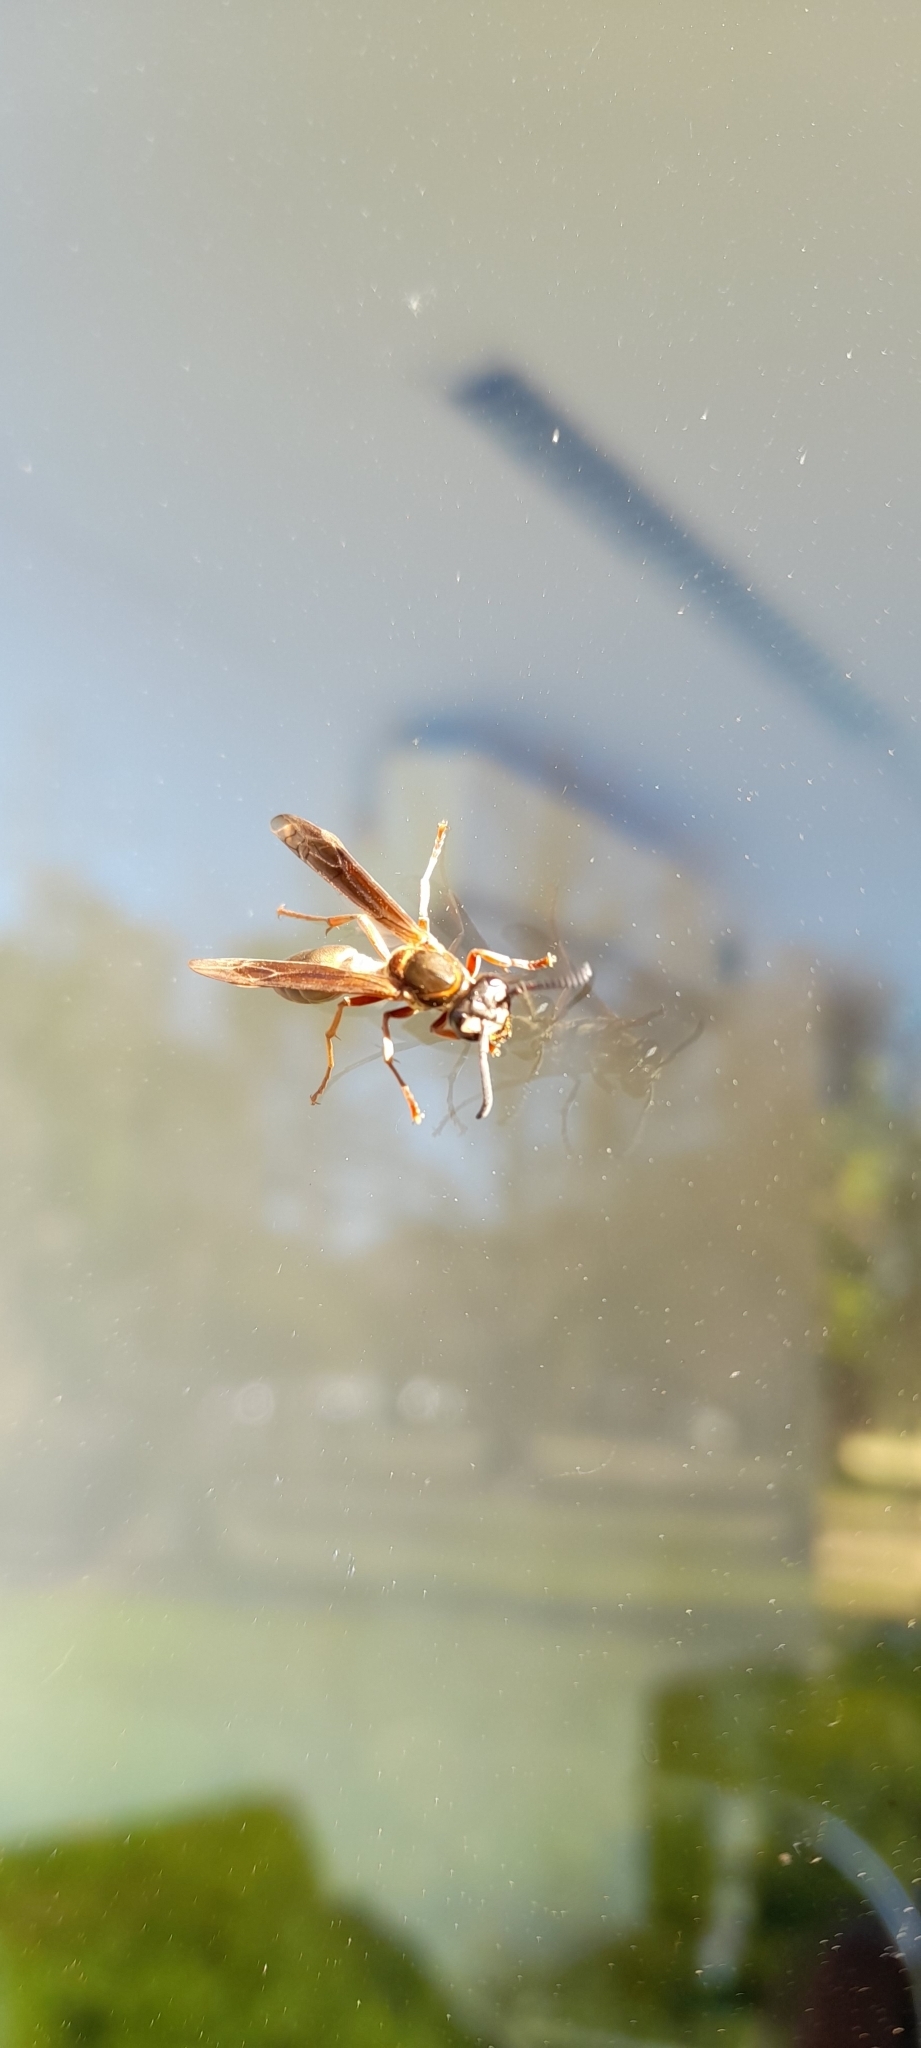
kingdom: Animalia
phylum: Arthropoda
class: Insecta
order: Hymenoptera
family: Eumenidae
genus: Polybia
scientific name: Polybia sericea
